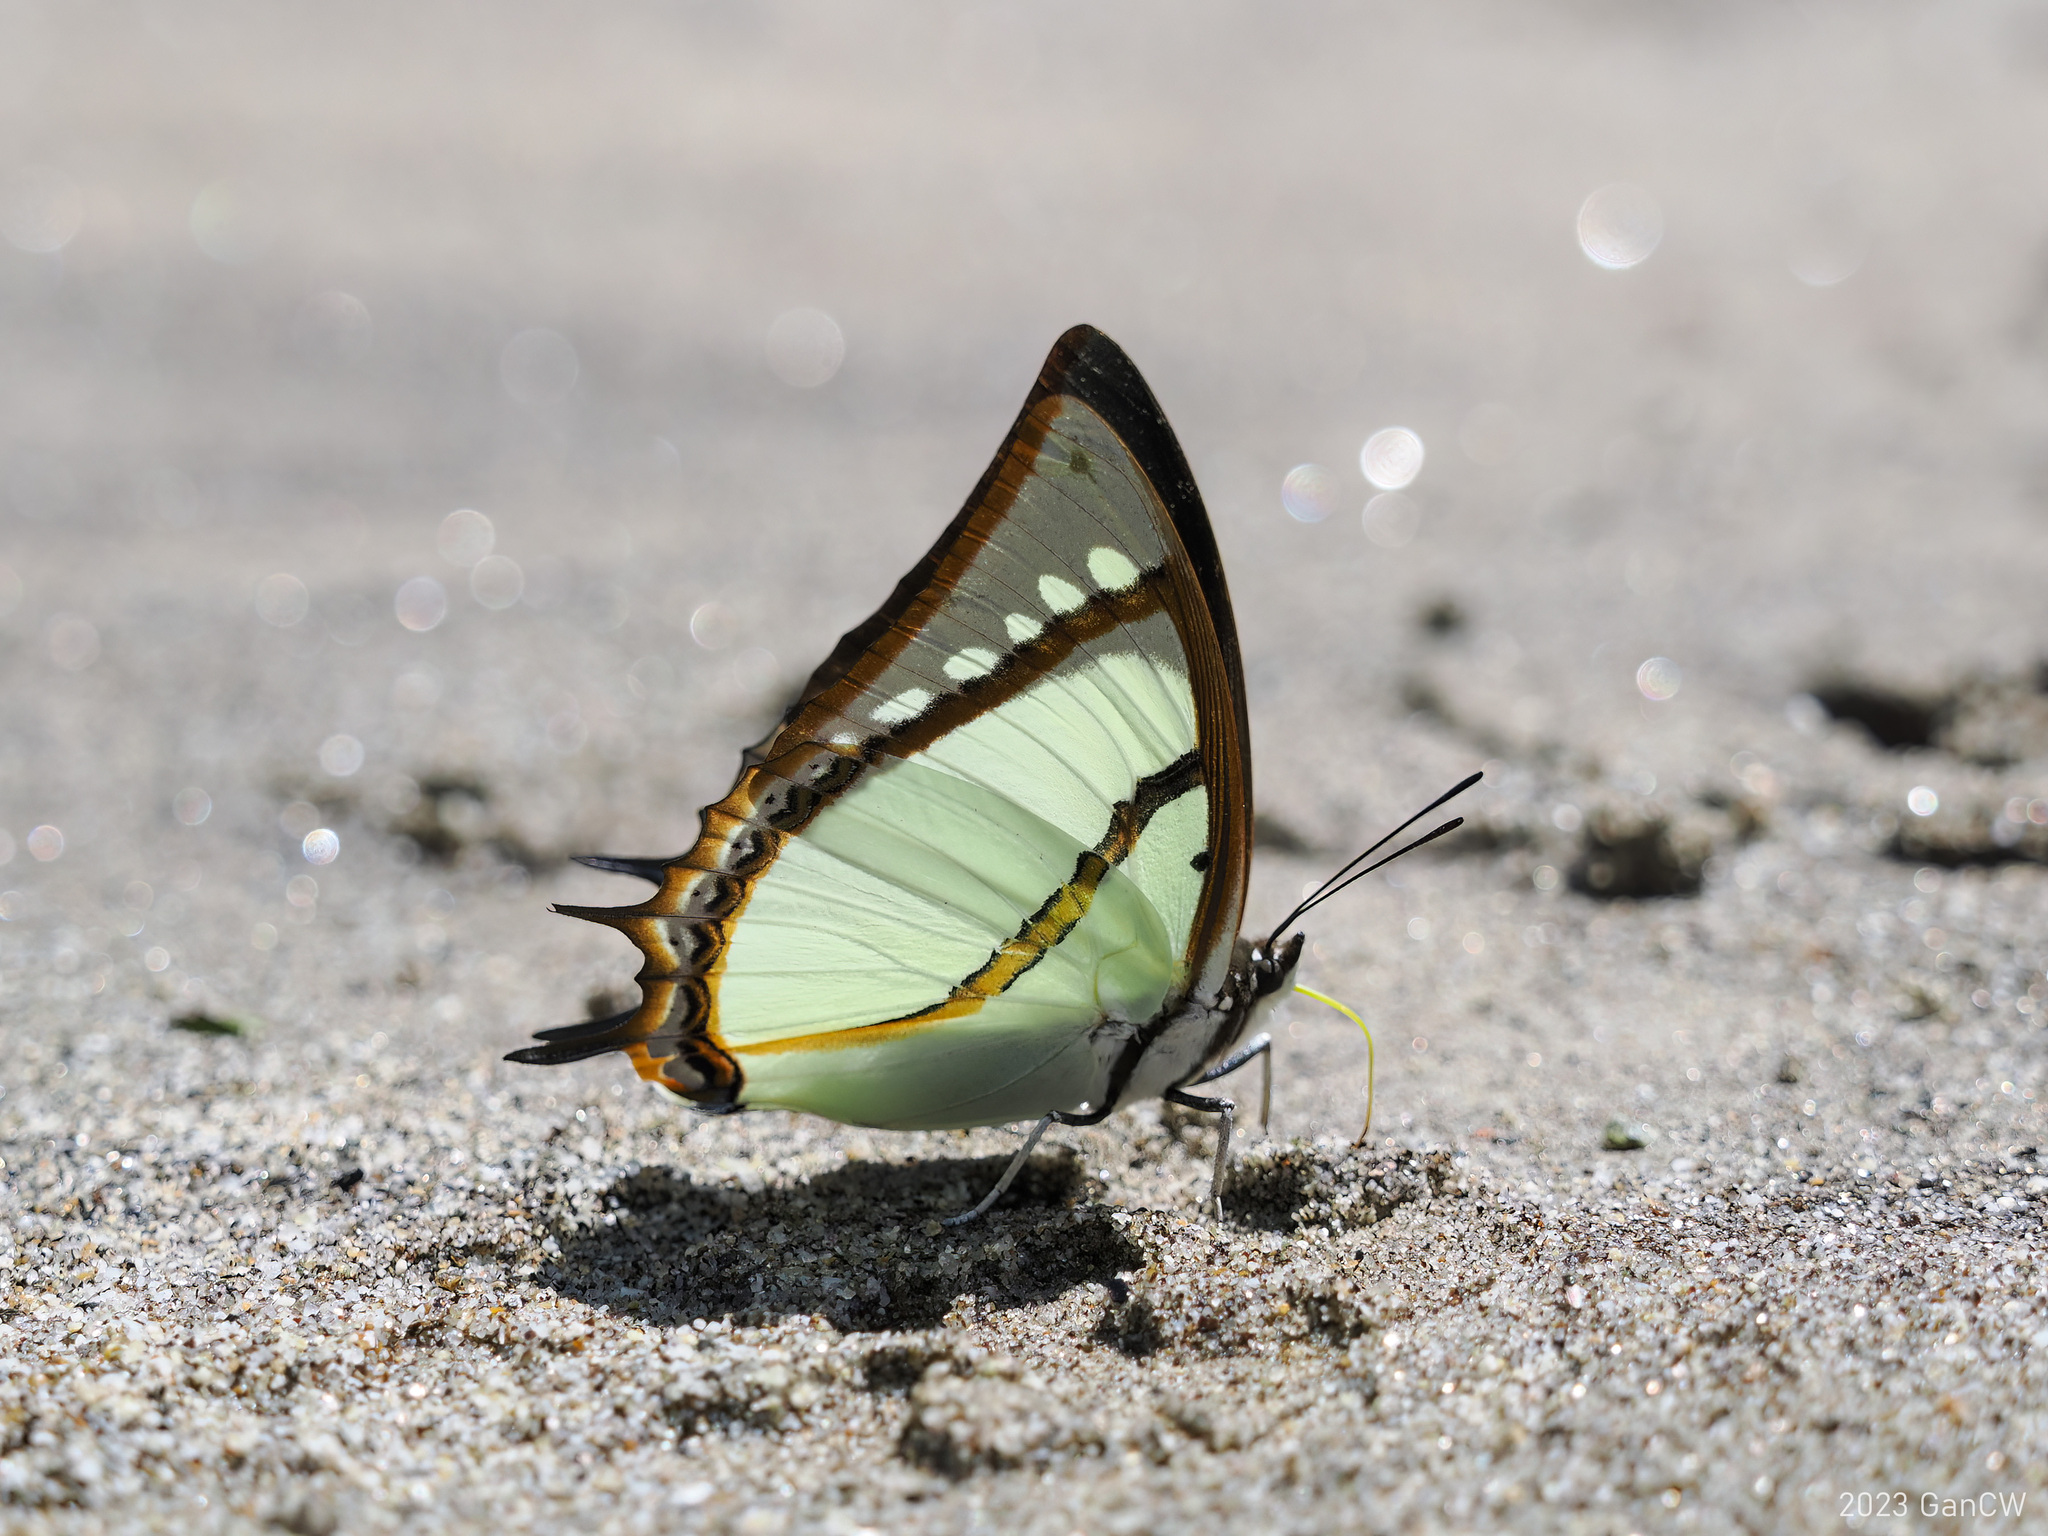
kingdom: Animalia
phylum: Arthropoda
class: Insecta
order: Lepidoptera
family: Nymphalidae
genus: Polyura
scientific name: Polyura dolon
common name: Stately nawab
